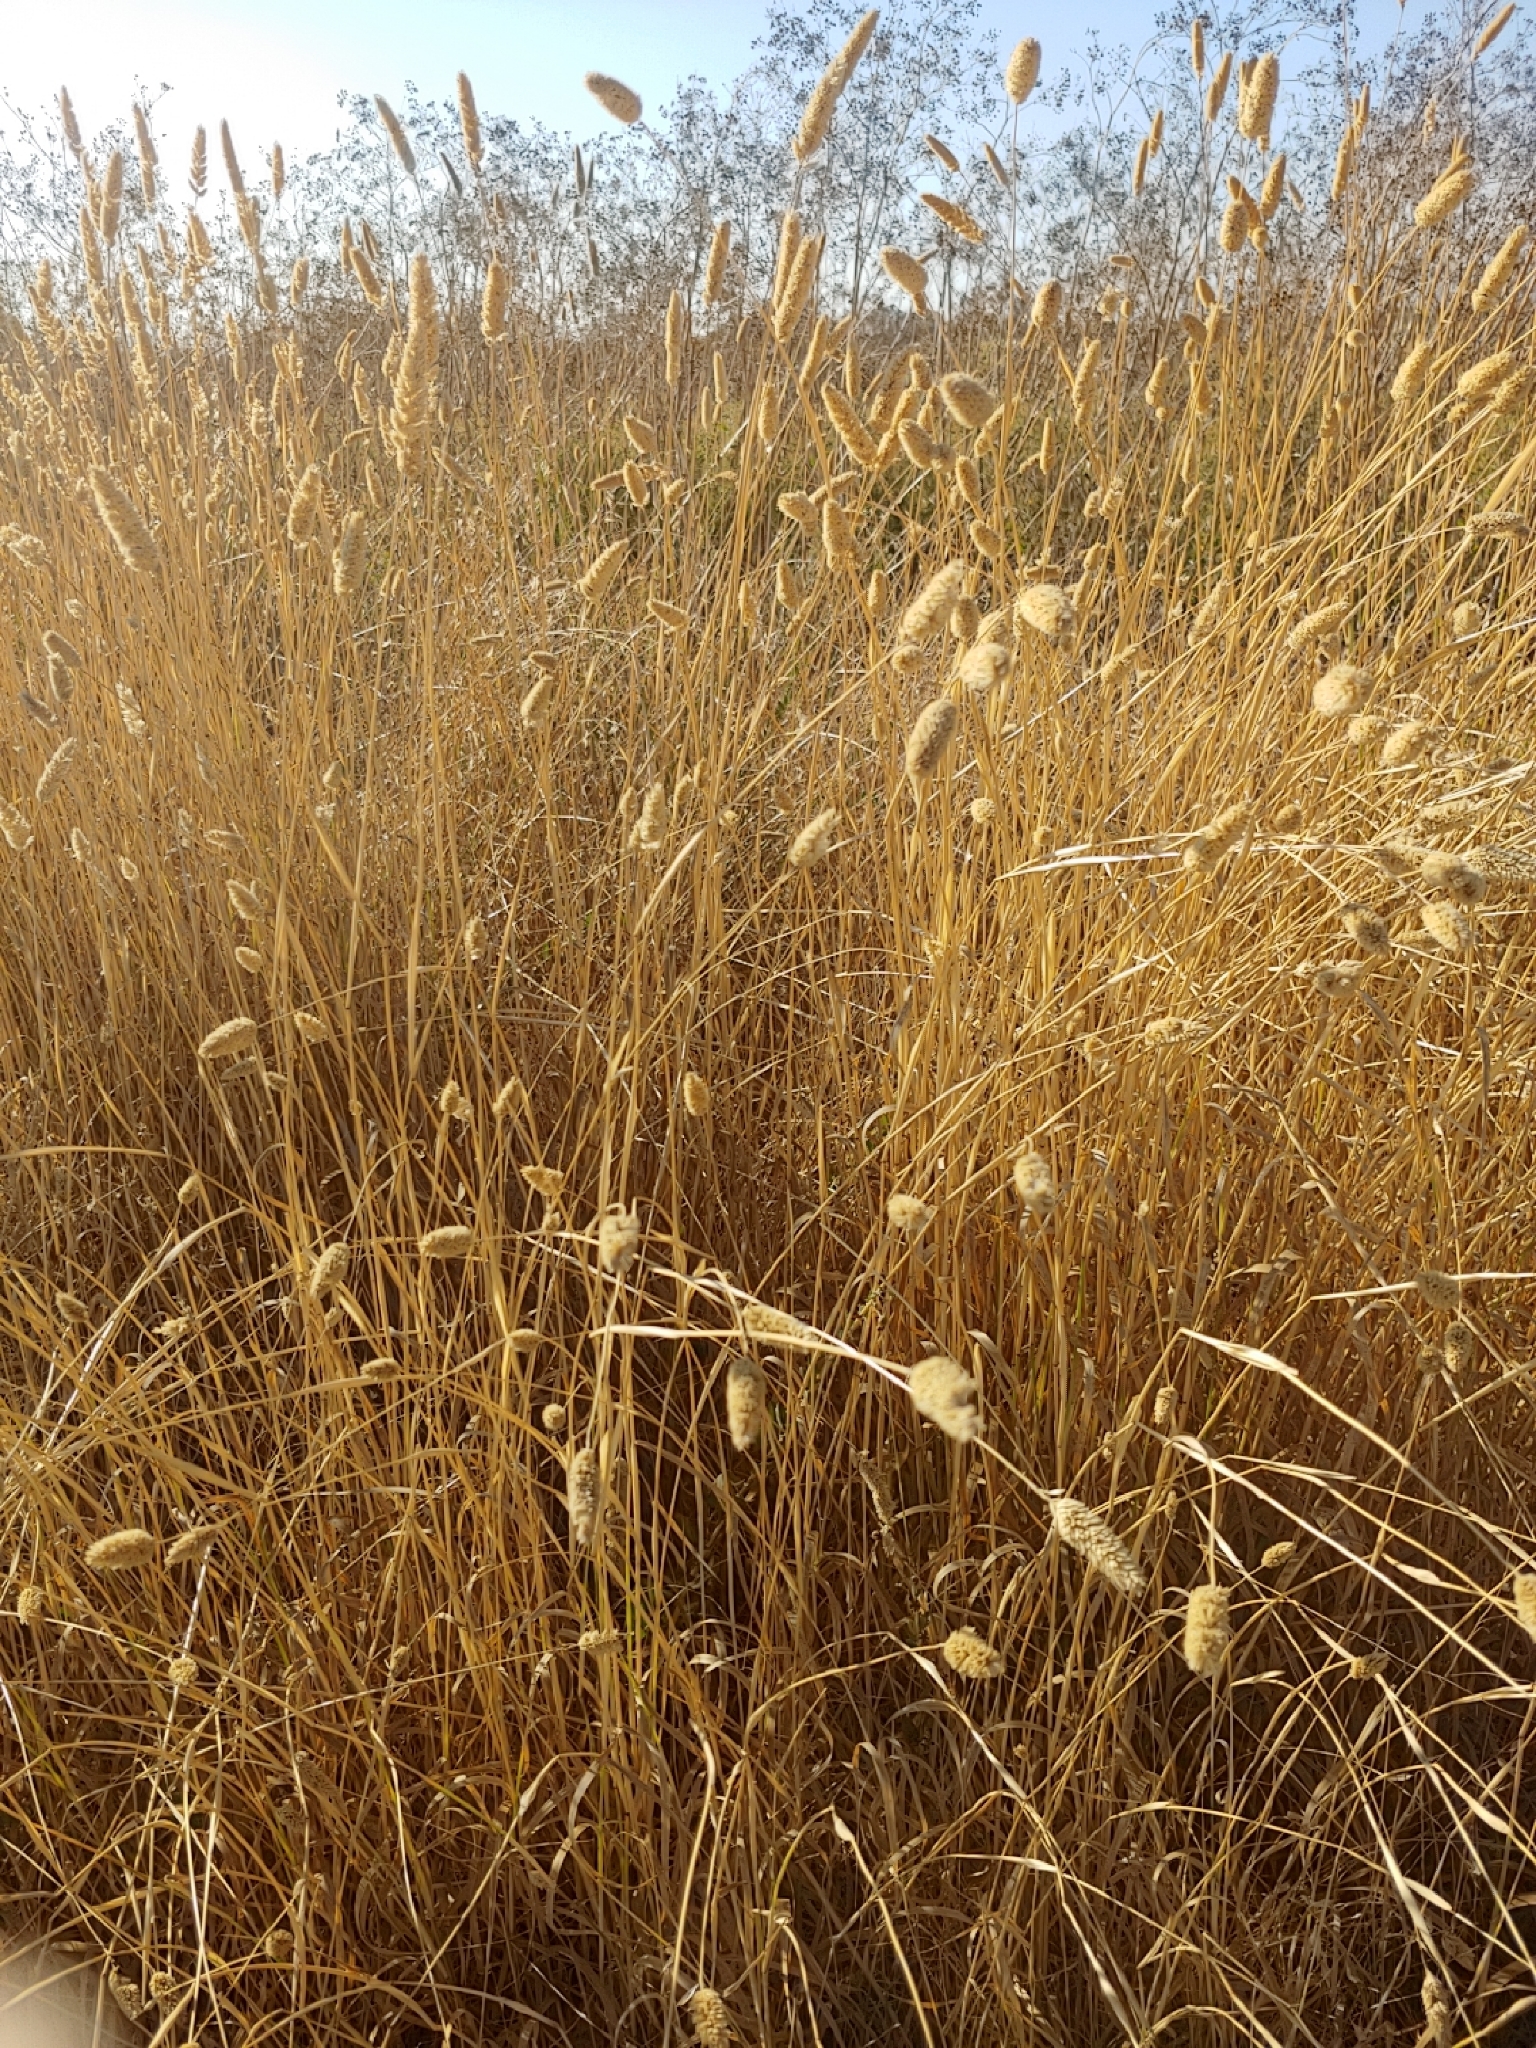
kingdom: Plantae
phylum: Tracheophyta
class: Liliopsida
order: Poales
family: Poaceae
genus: Phalaris
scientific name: Phalaris aquatica
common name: Bulbous canary-grass
